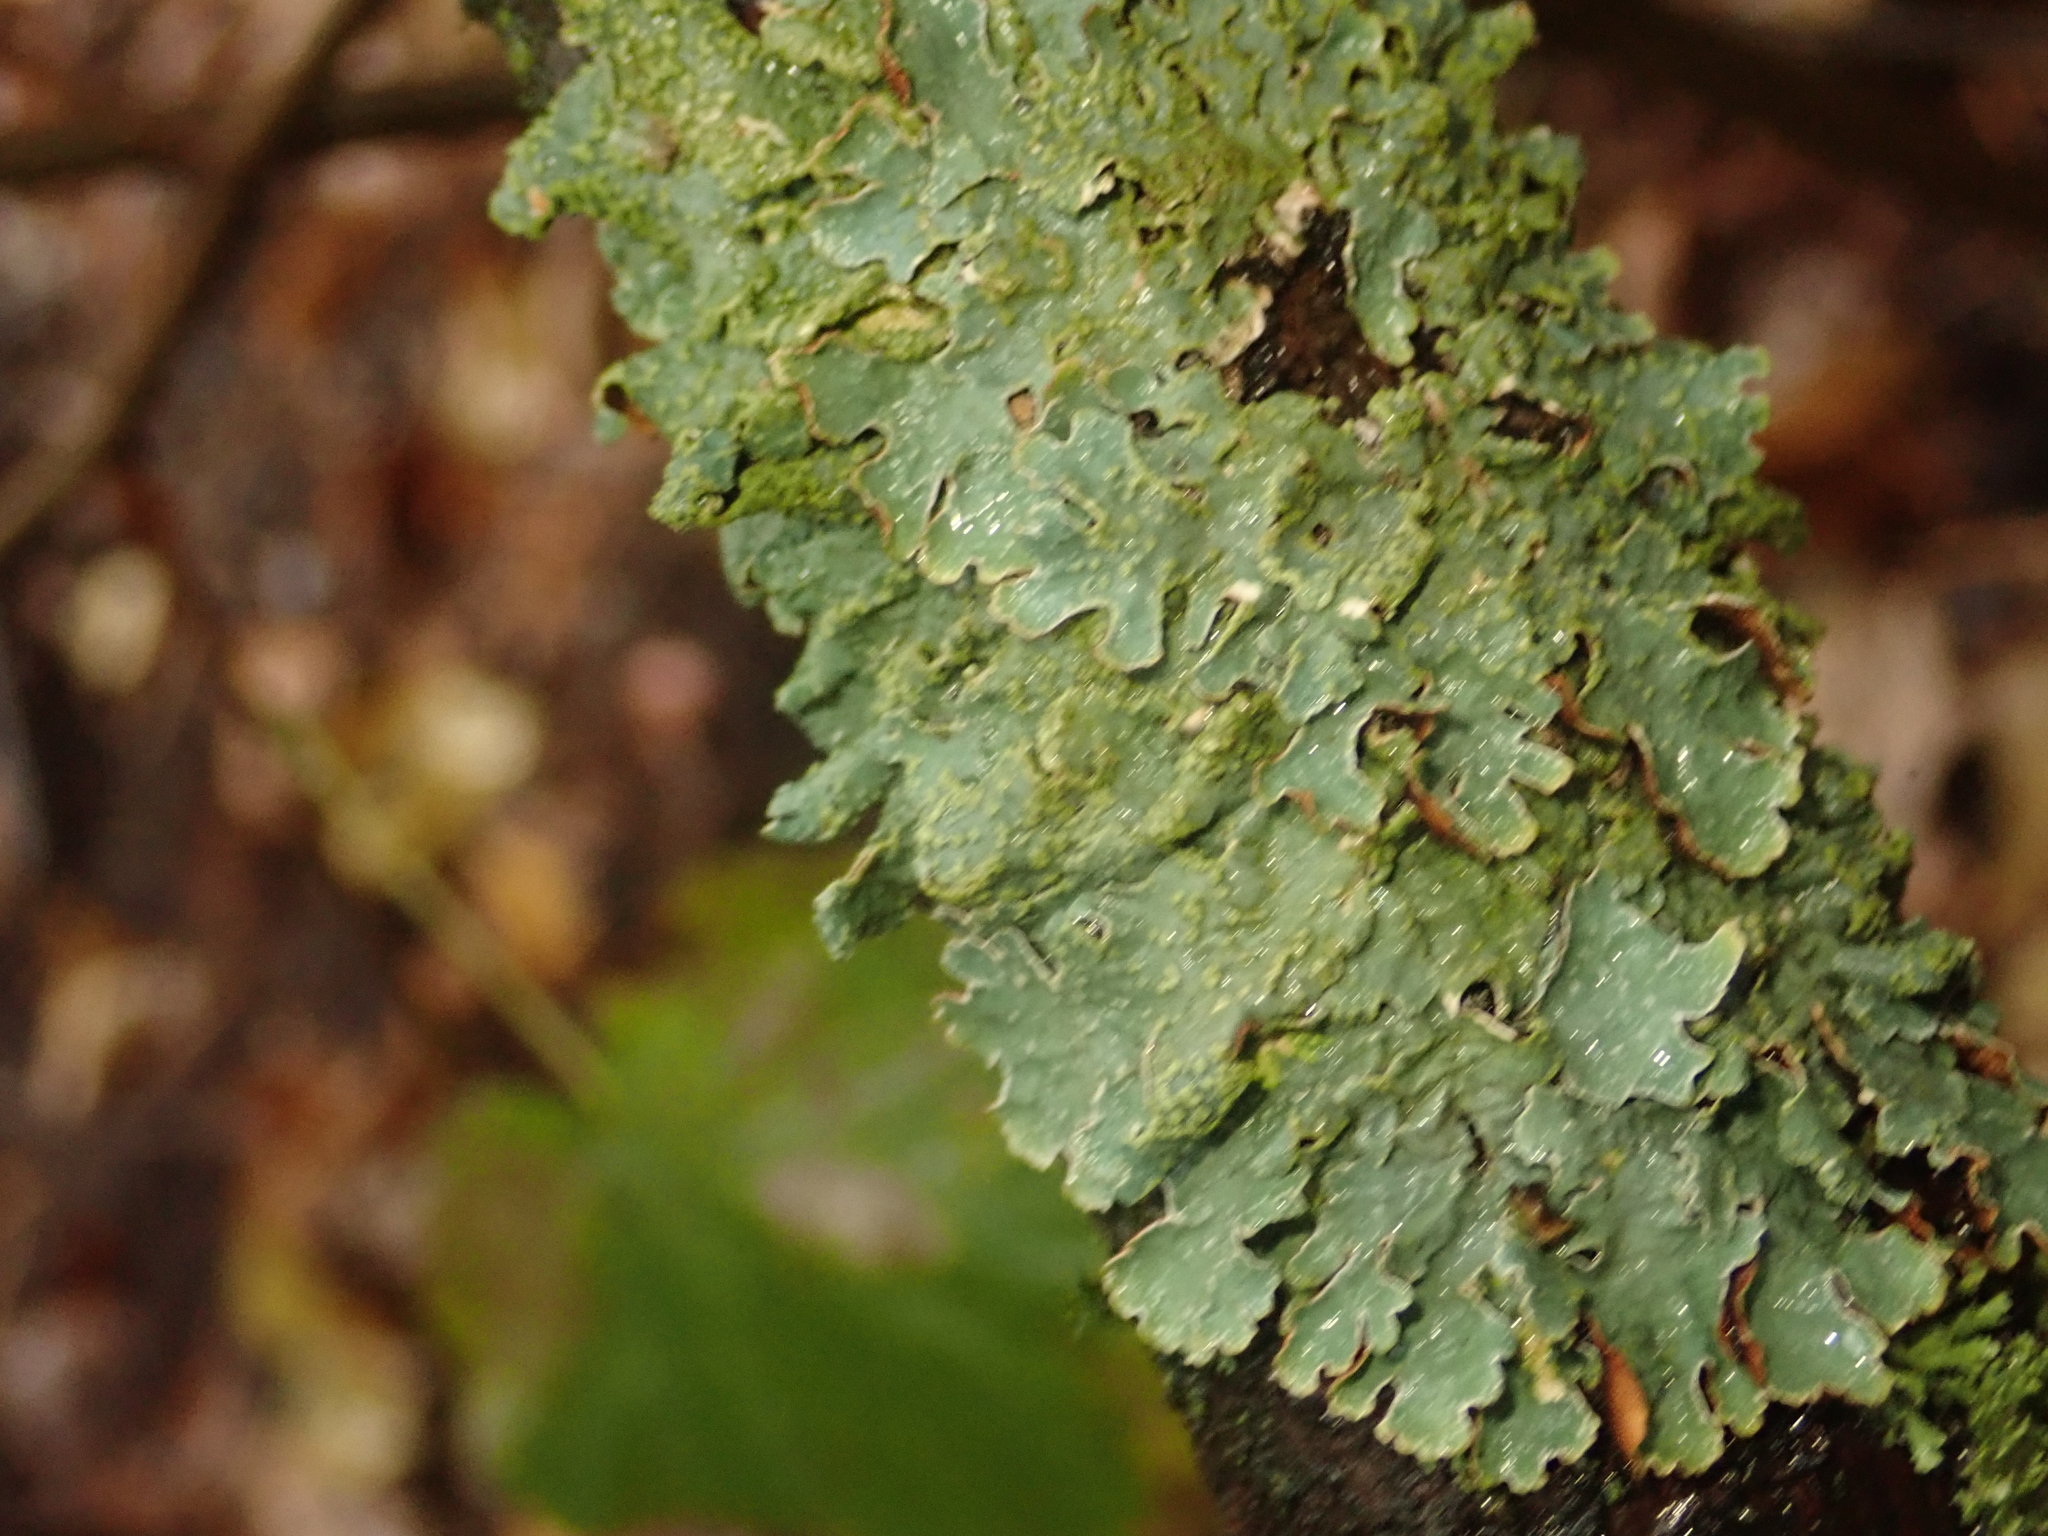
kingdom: Fungi
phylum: Ascomycota
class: Lecanoromycetes
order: Lecanorales
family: Parmeliaceae
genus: Parmelia
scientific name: Parmelia sulcata
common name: Netted shield lichen
